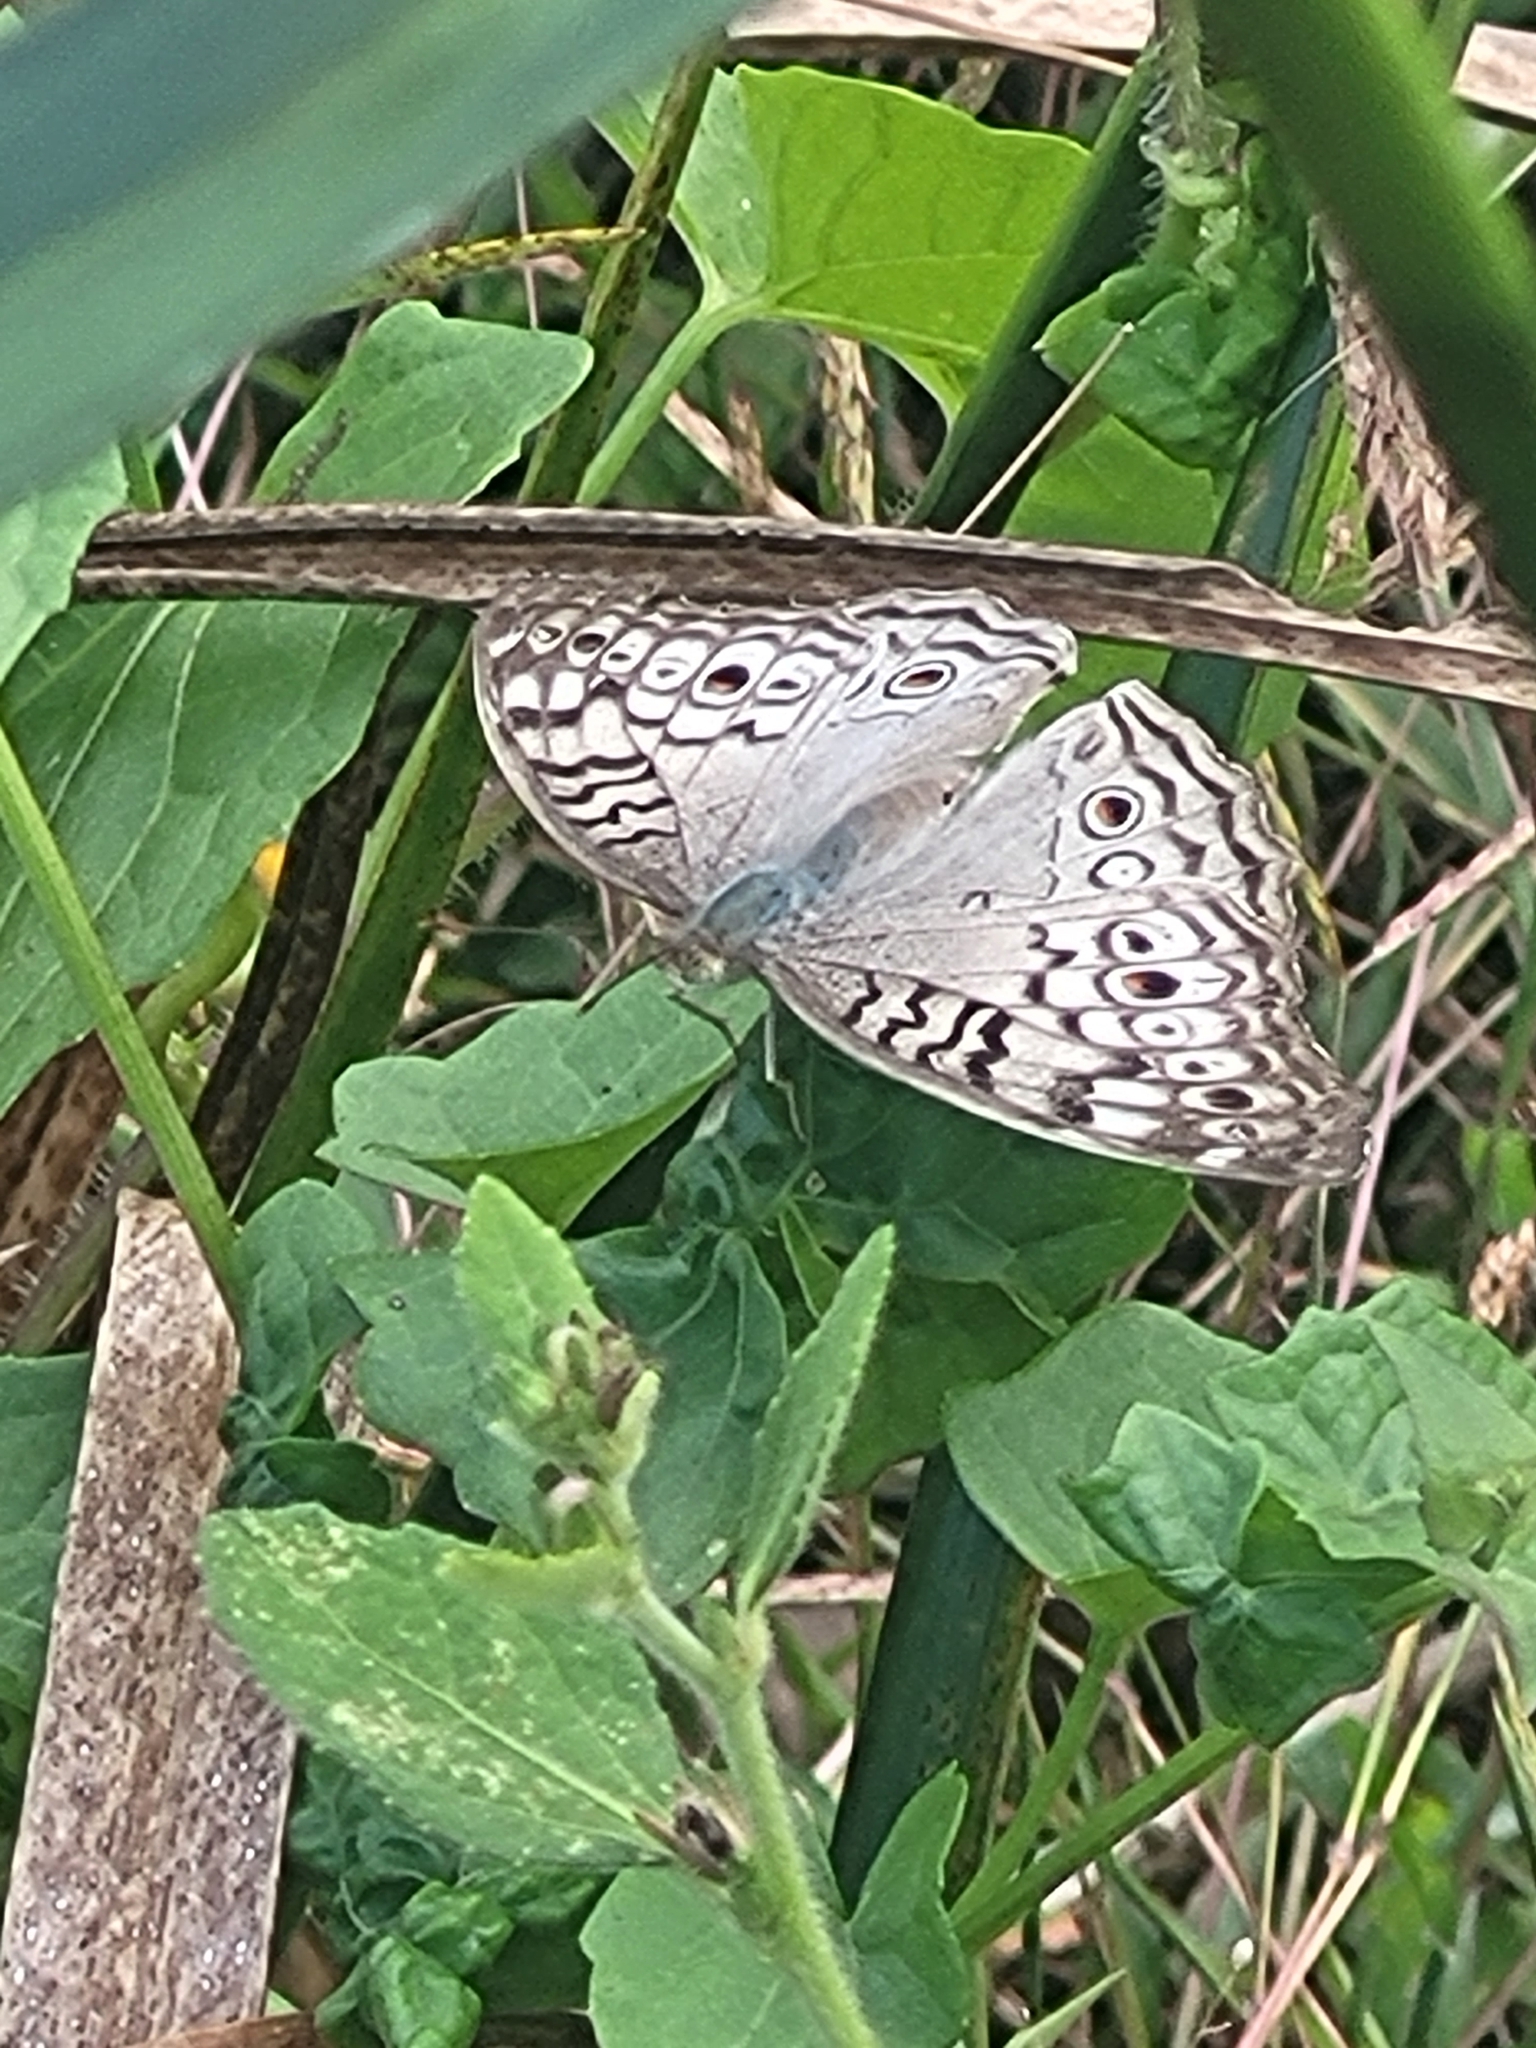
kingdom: Animalia
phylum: Arthropoda
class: Insecta
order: Lepidoptera
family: Nymphalidae
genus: Junonia
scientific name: Junonia atlites
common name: Grey pansy
